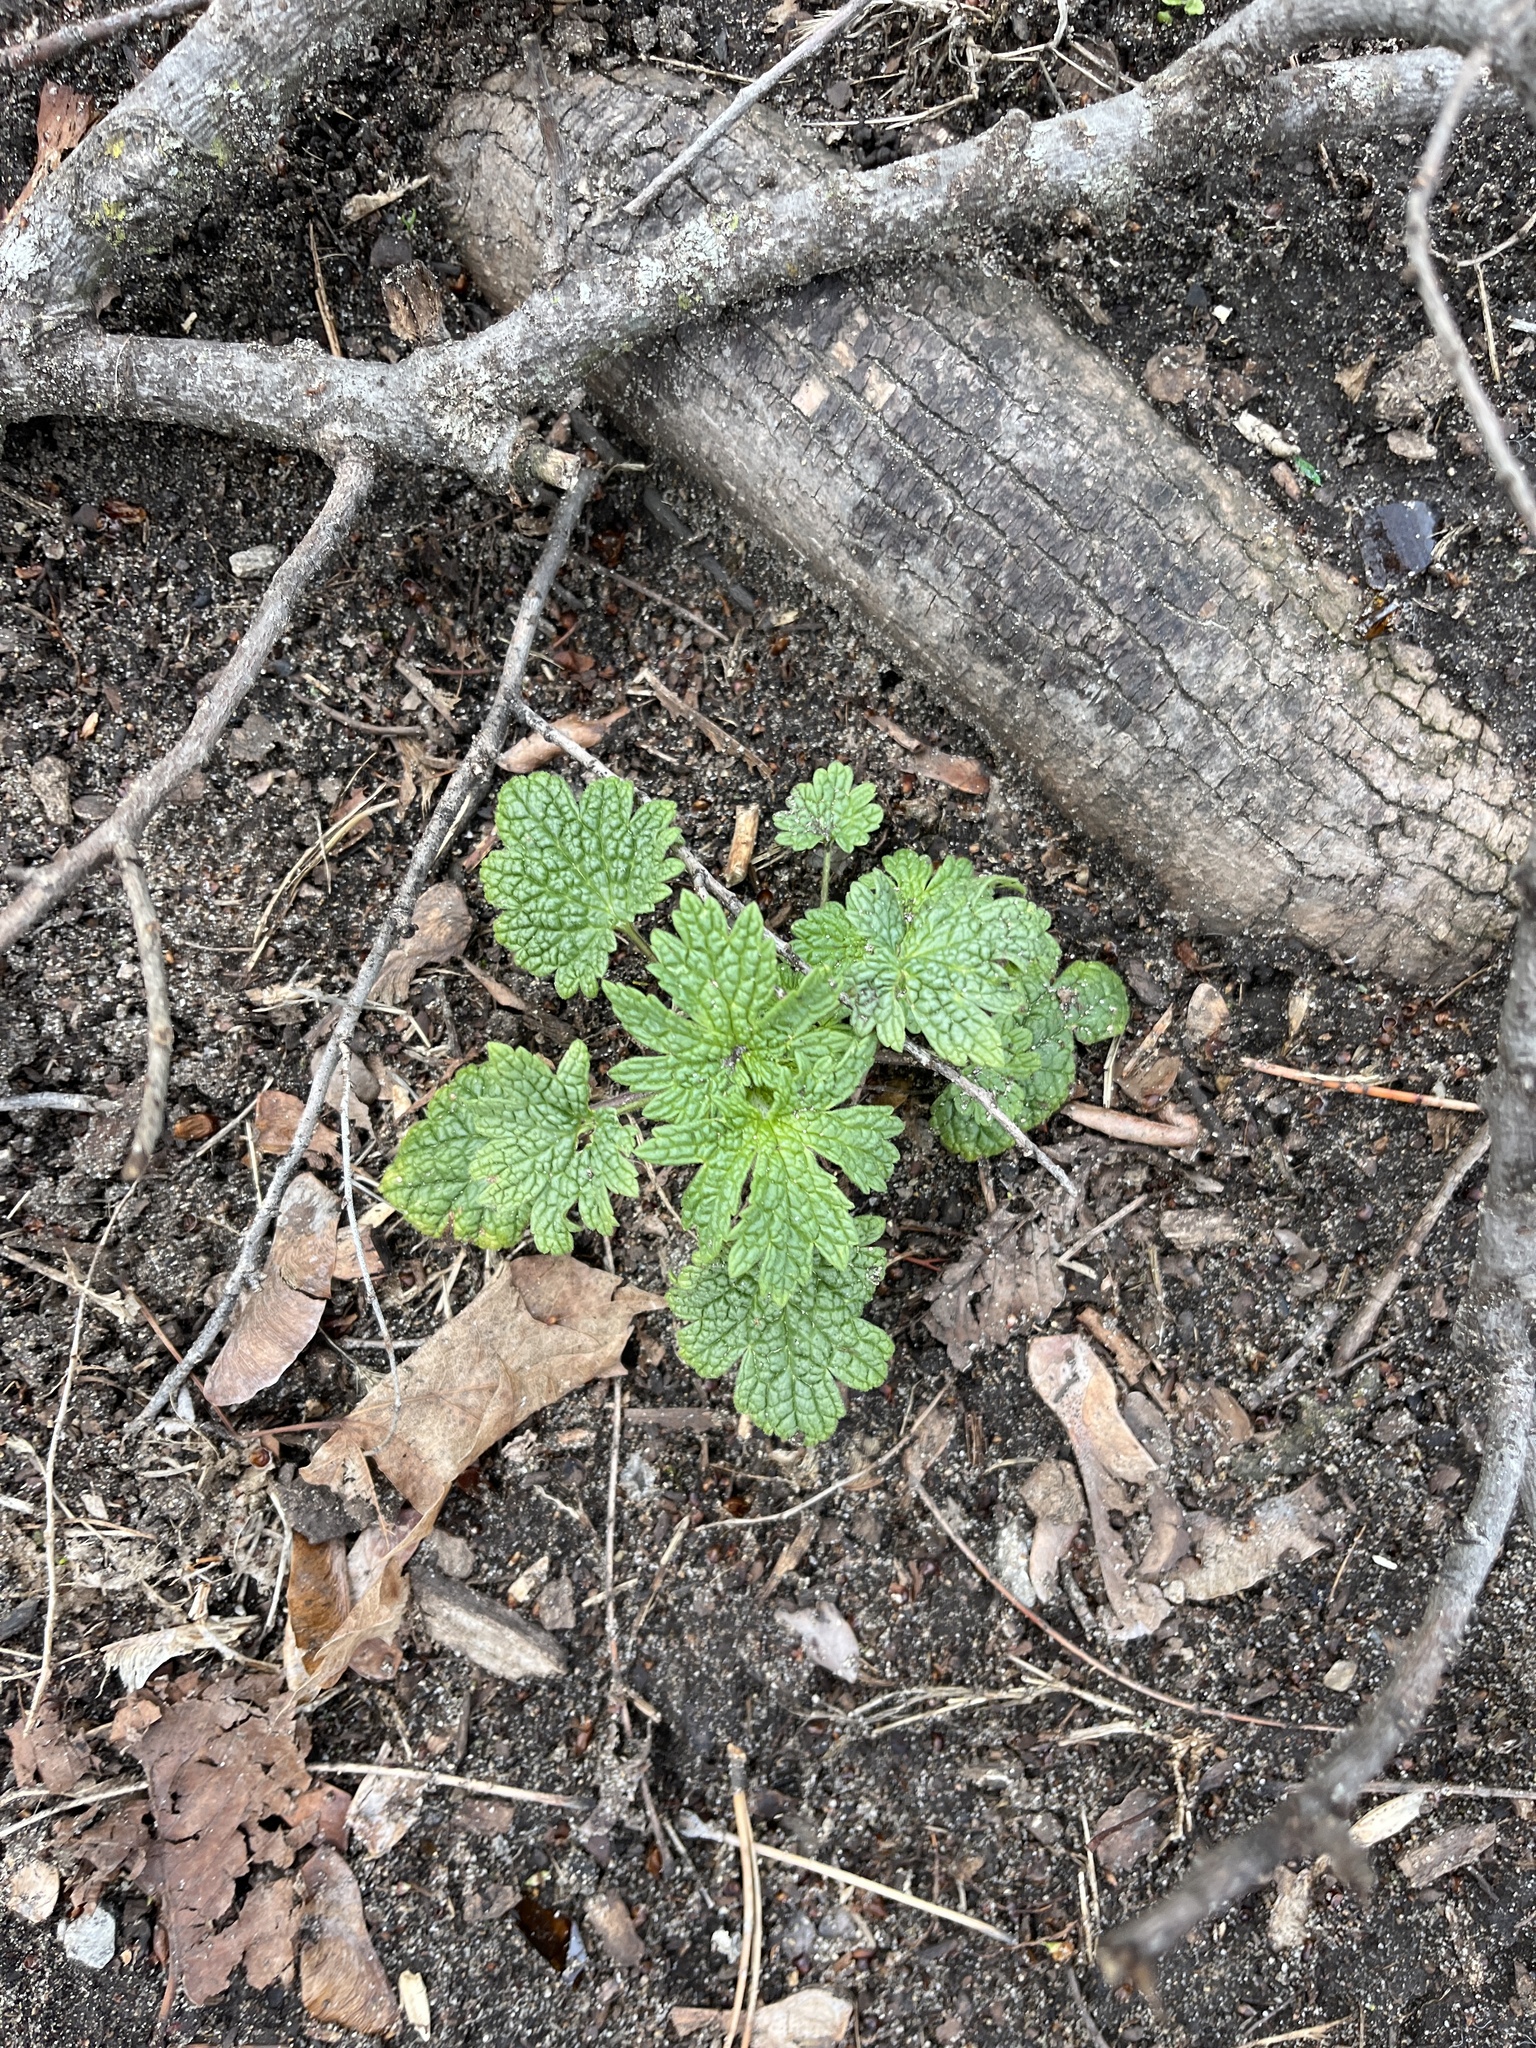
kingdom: Plantae
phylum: Tracheophyta
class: Magnoliopsida
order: Lamiales
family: Lamiaceae
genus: Leonurus
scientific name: Leonurus cardiaca
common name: Motherwort
